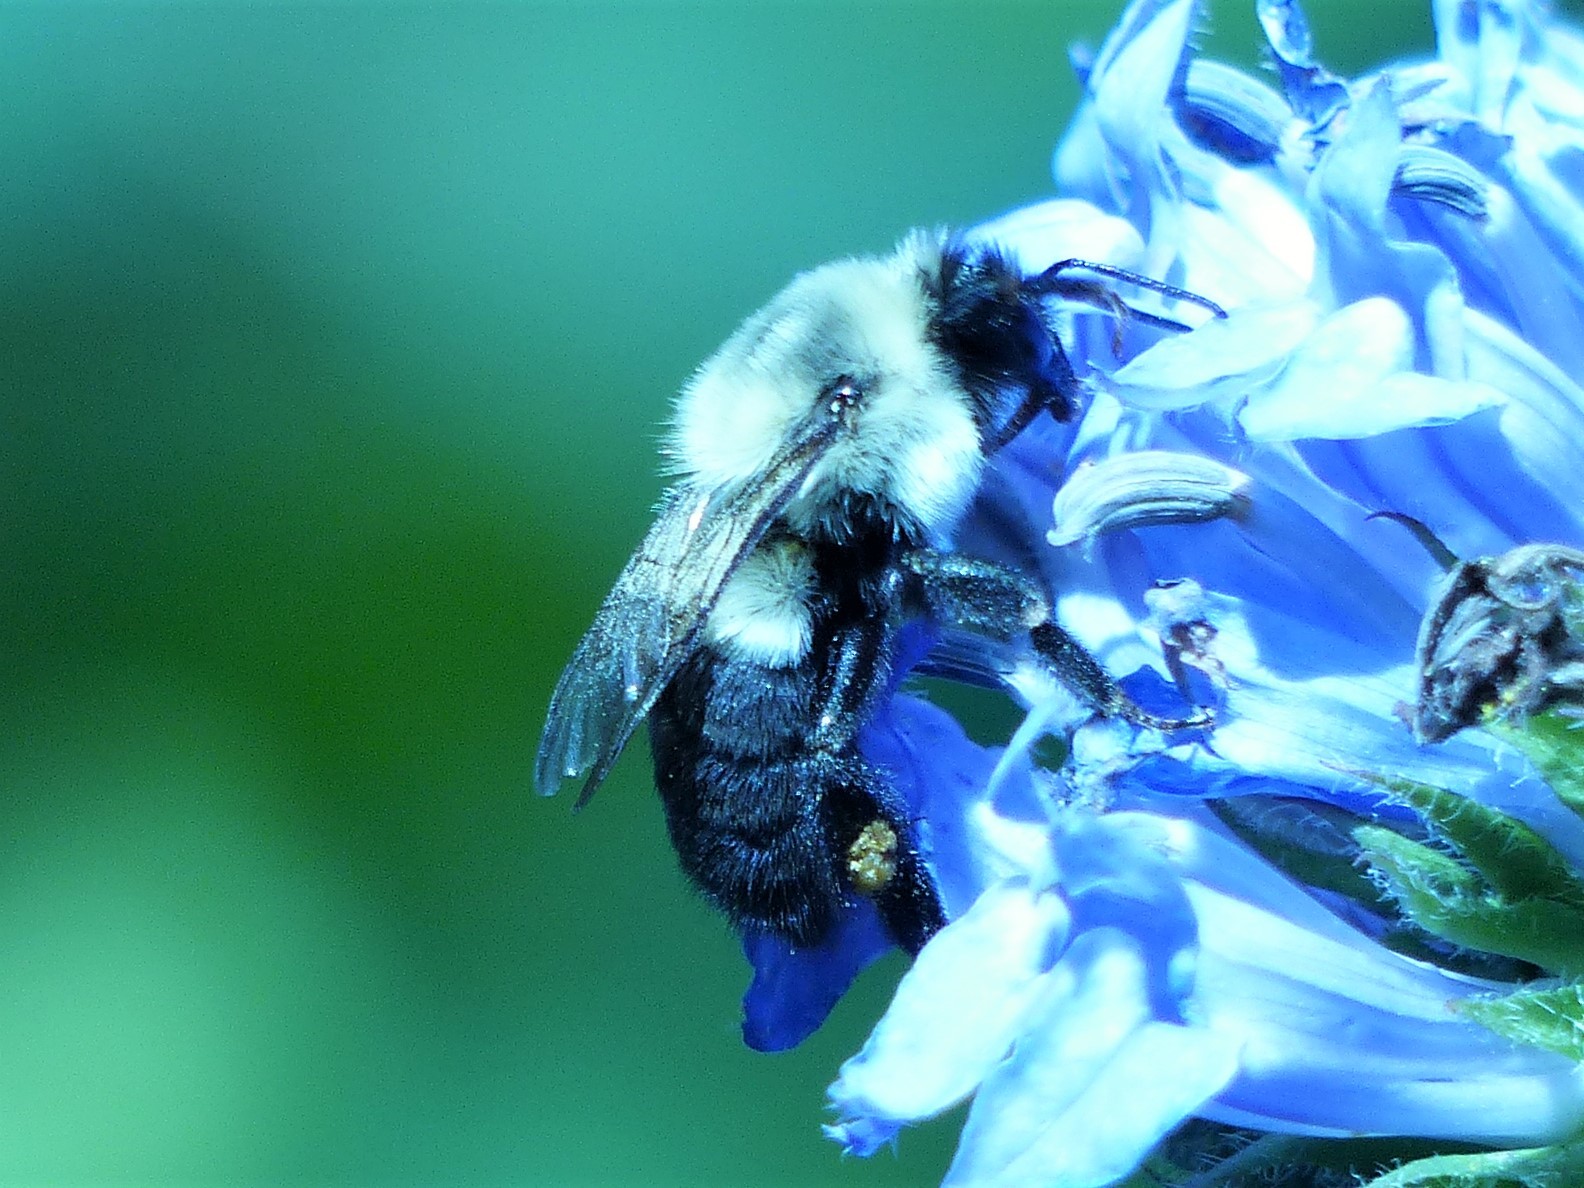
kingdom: Animalia
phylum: Arthropoda
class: Insecta
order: Hymenoptera
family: Apidae
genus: Bombus
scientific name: Bombus impatiens
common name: Common eastern bumble bee
